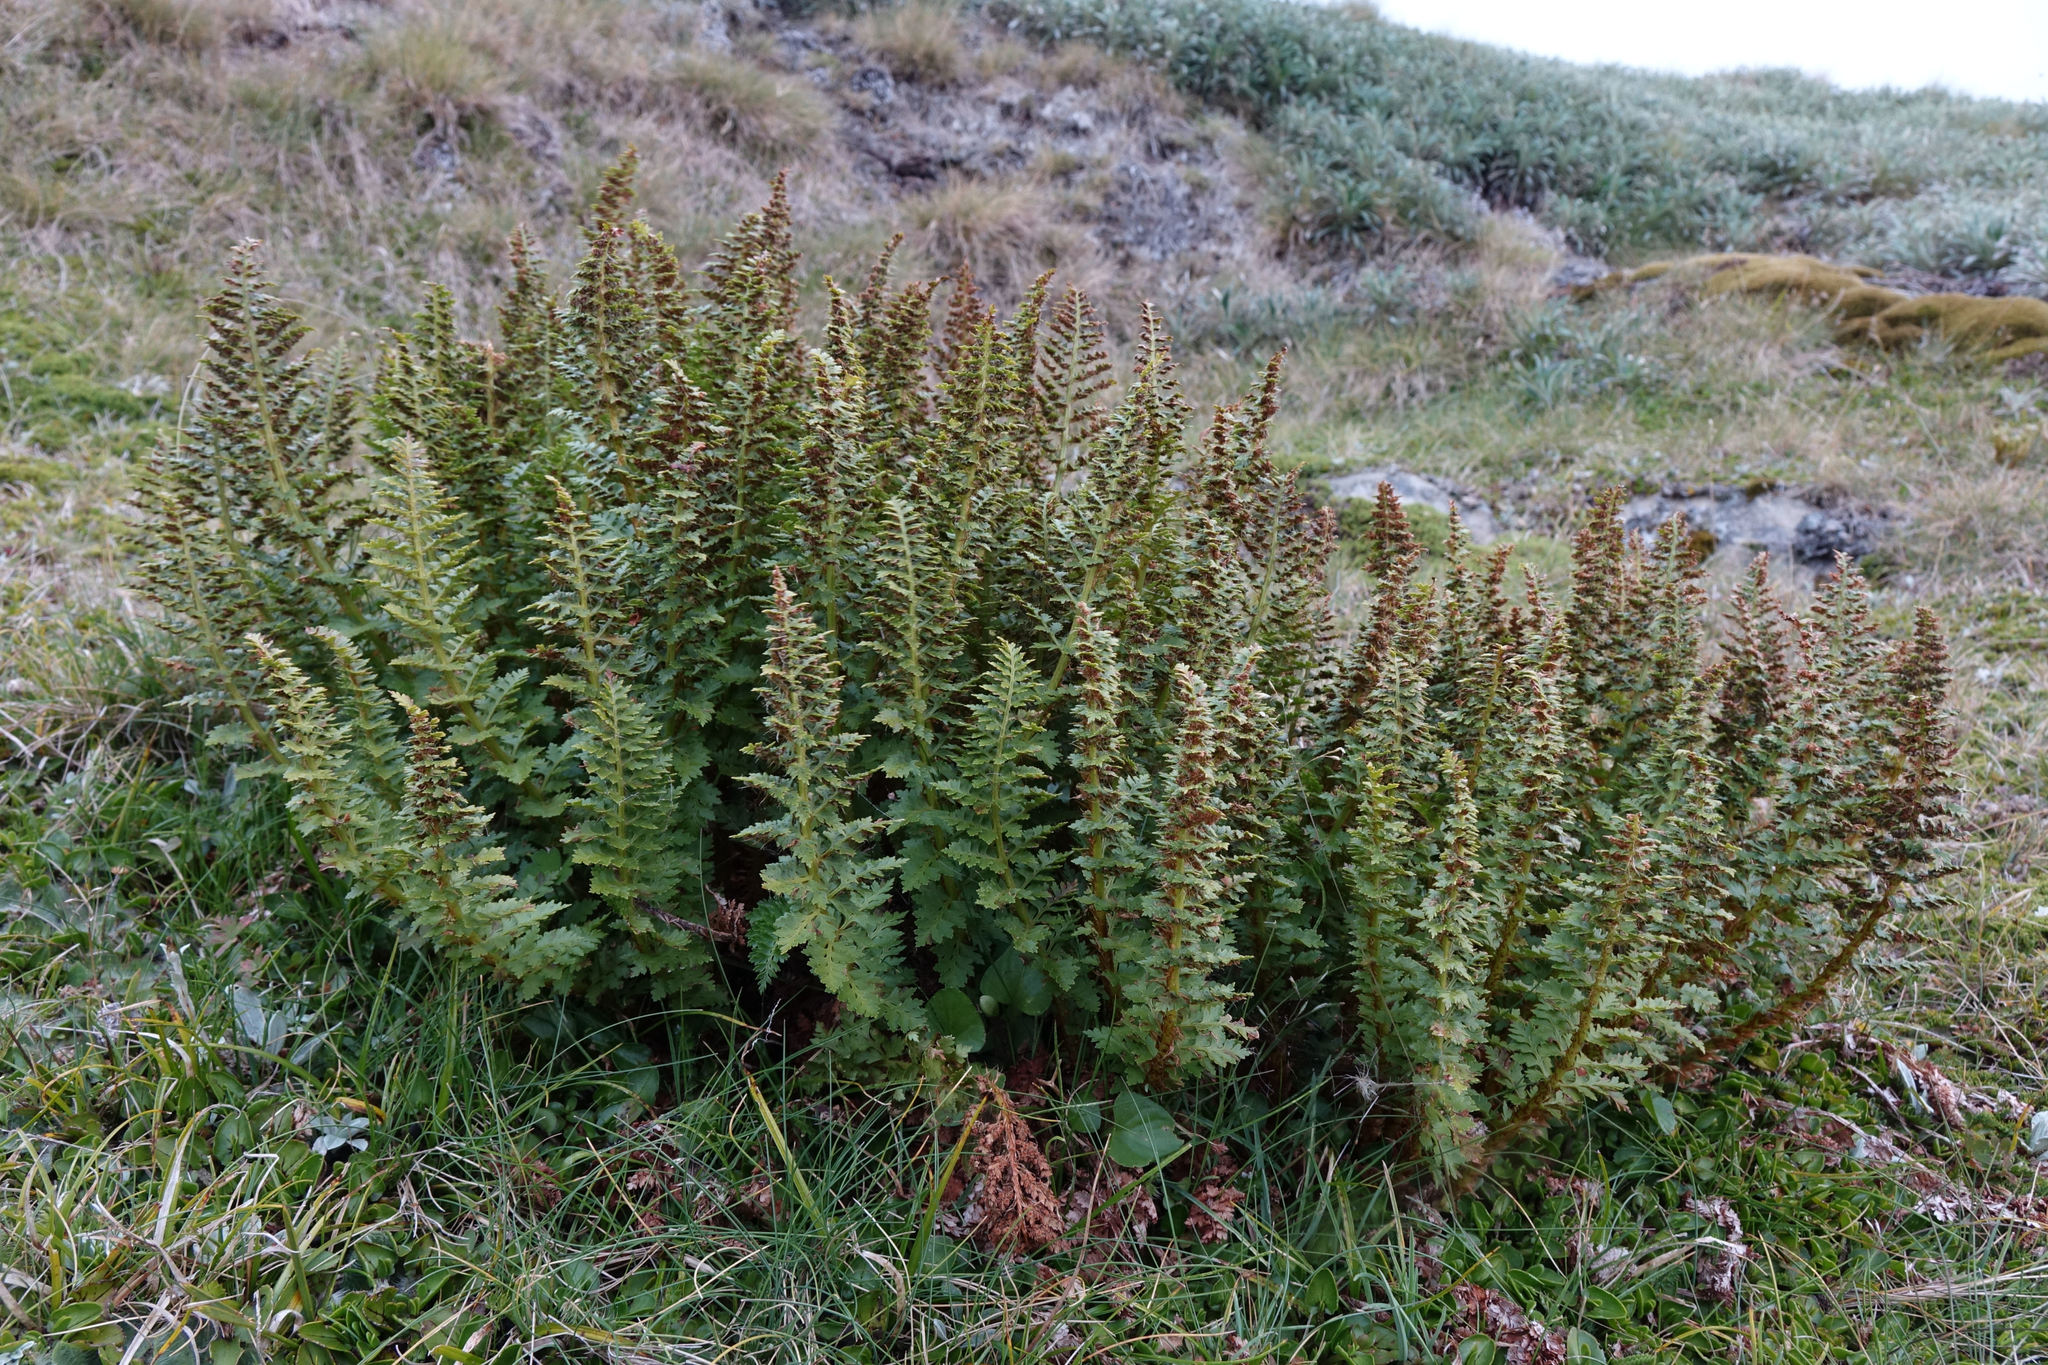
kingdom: Plantae
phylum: Tracheophyta
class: Polypodiopsida
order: Polypodiales
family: Dryopteridaceae
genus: Polystichum
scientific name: Polystichum cystostegia
